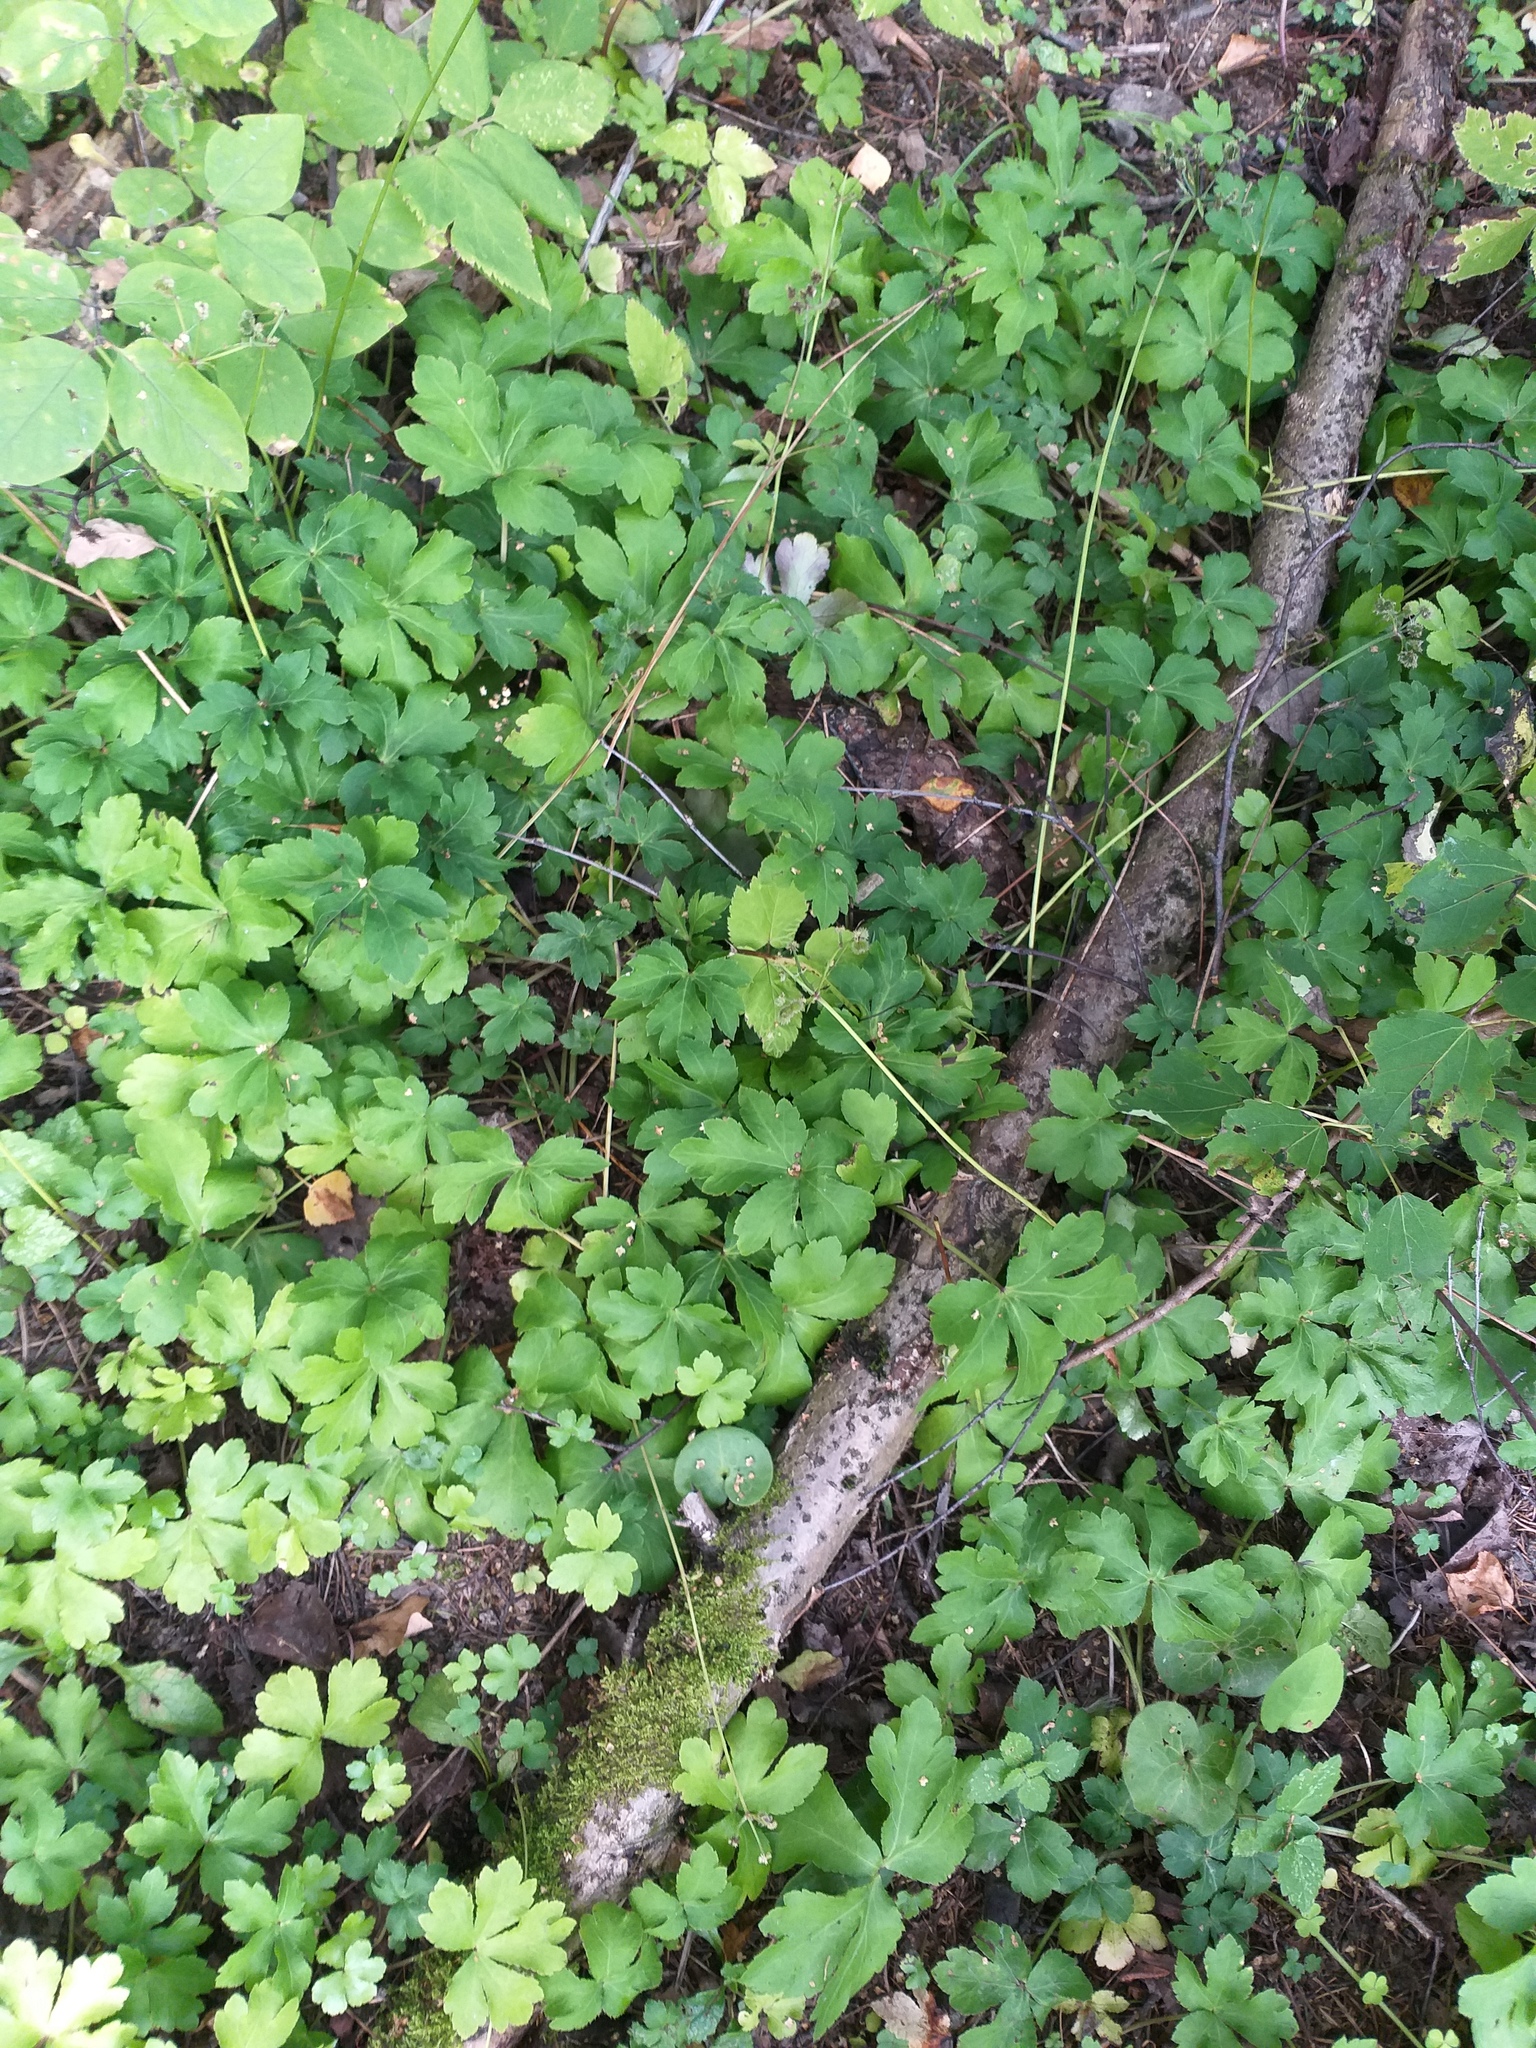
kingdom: Plantae
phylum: Tracheophyta
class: Magnoliopsida
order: Apiales
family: Apiaceae
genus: Sanicula
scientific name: Sanicula europaea
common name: Sanicle
